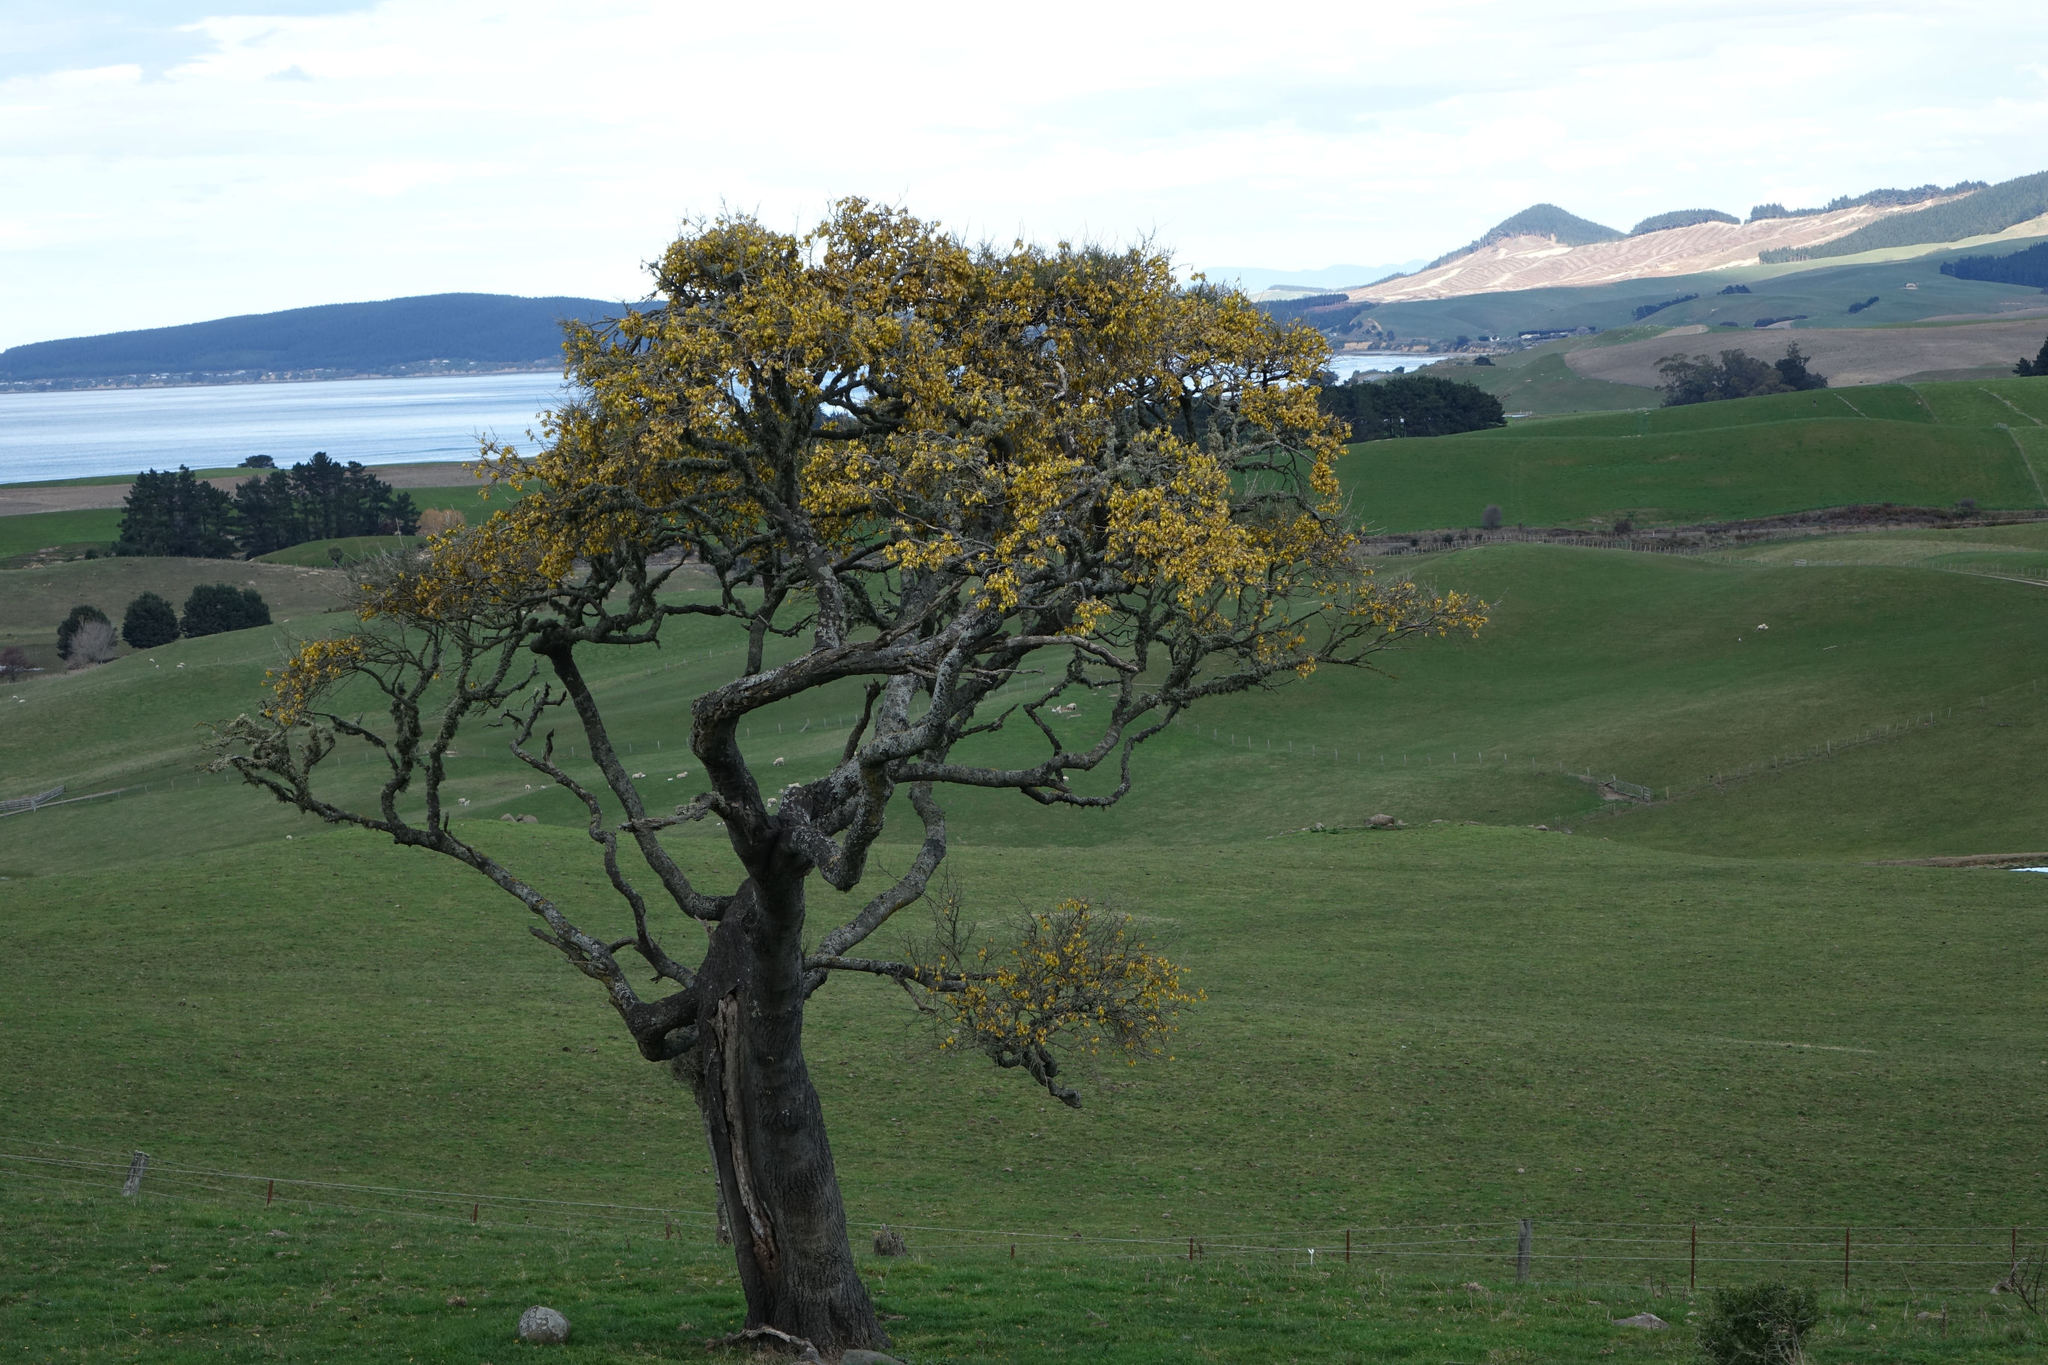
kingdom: Plantae
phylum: Tracheophyta
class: Magnoliopsida
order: Fabales
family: Fabaceae
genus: Sophora
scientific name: Sophora microphylla
